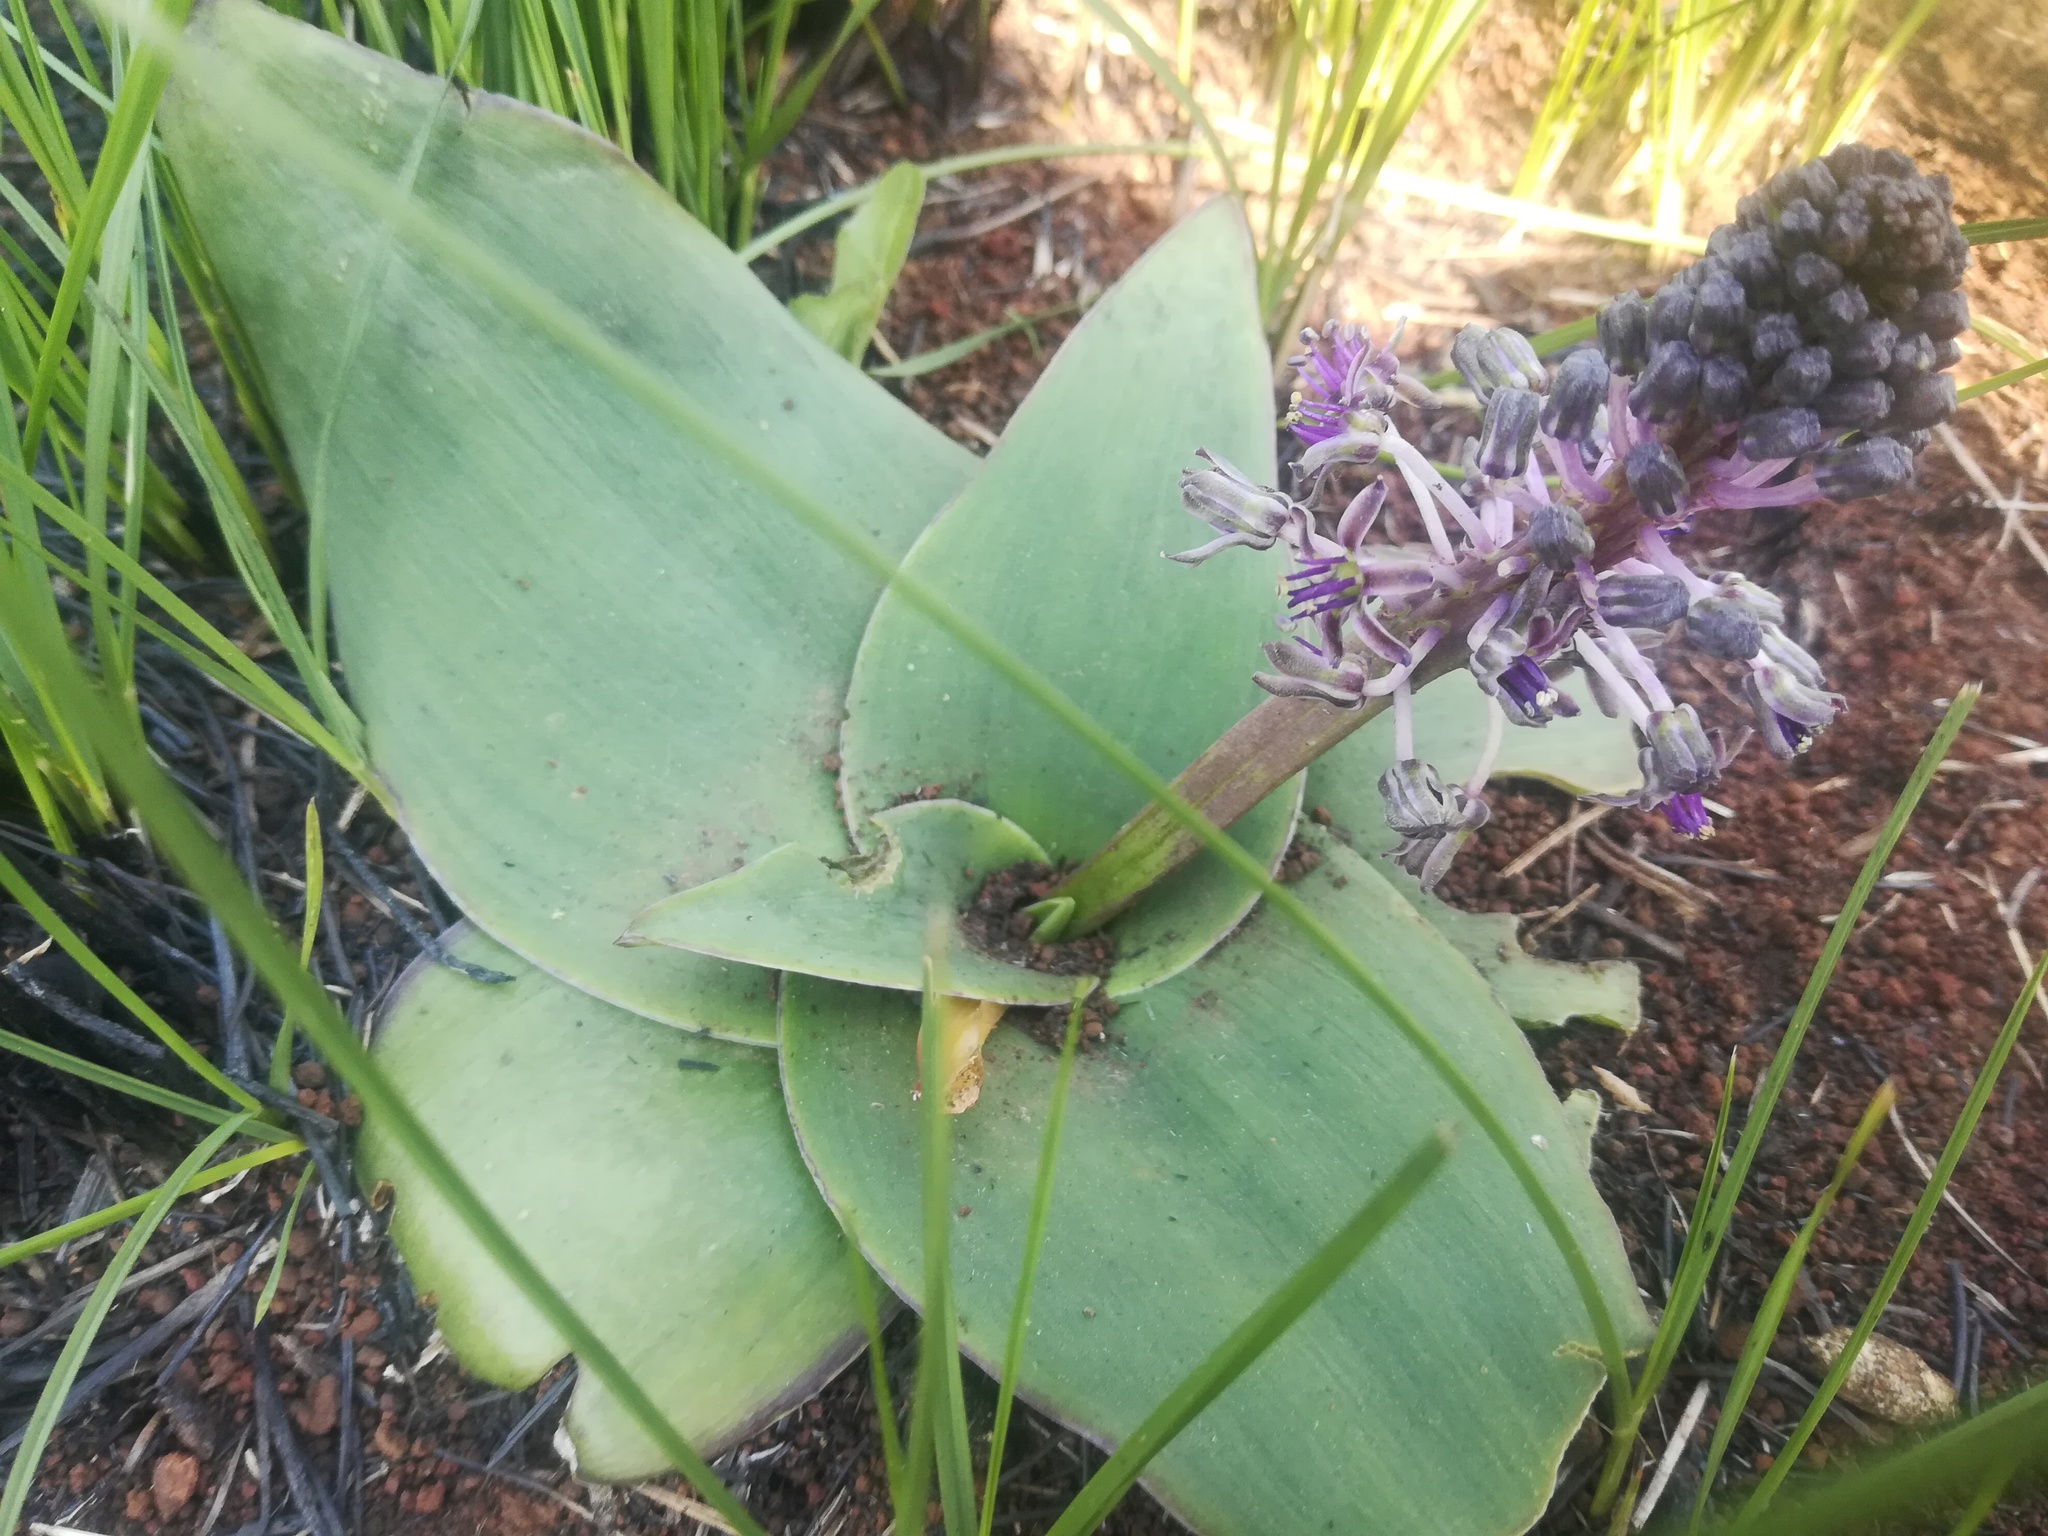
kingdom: Plantae
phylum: Tracheophyta
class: Liliopsida
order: Asparagales
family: Asparagaceae
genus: Ledebouria
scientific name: Ledebouria ovatifolia
